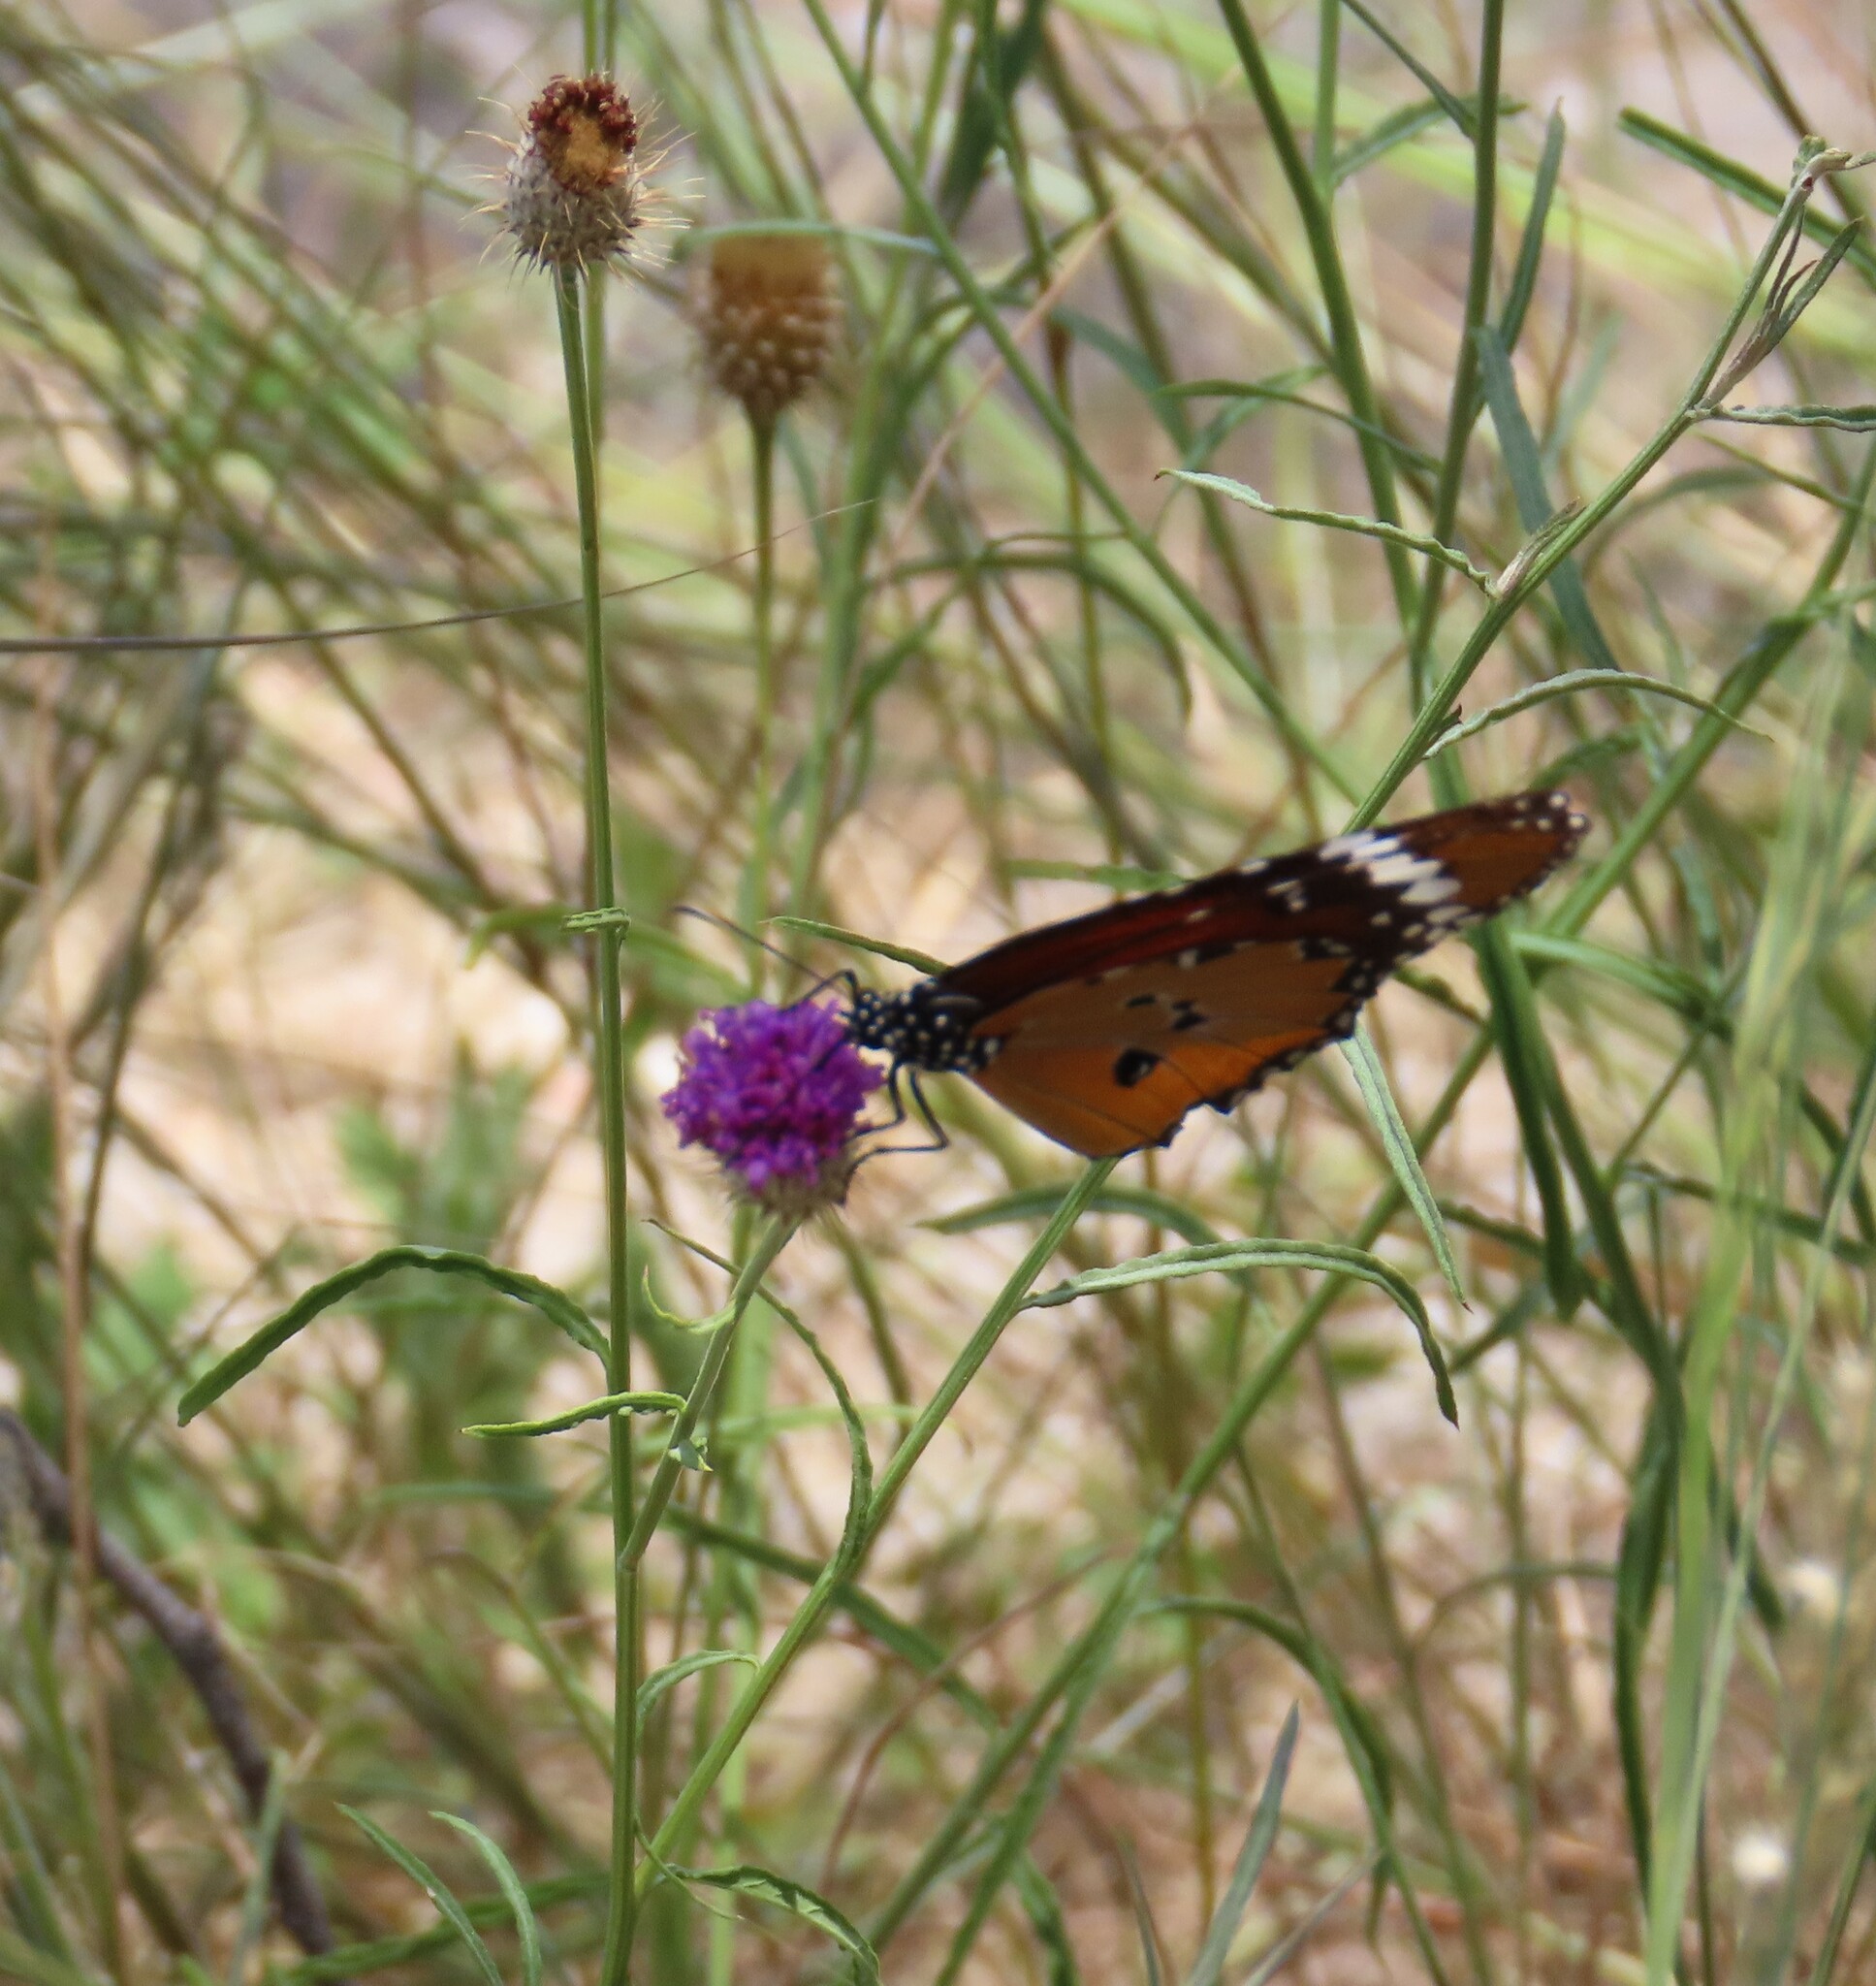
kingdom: Animalia
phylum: Arthropoda
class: Insecta
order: Lepidoptera
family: Nymphalidae
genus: Danaus
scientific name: Danaus chrysippus
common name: Plain tiger
